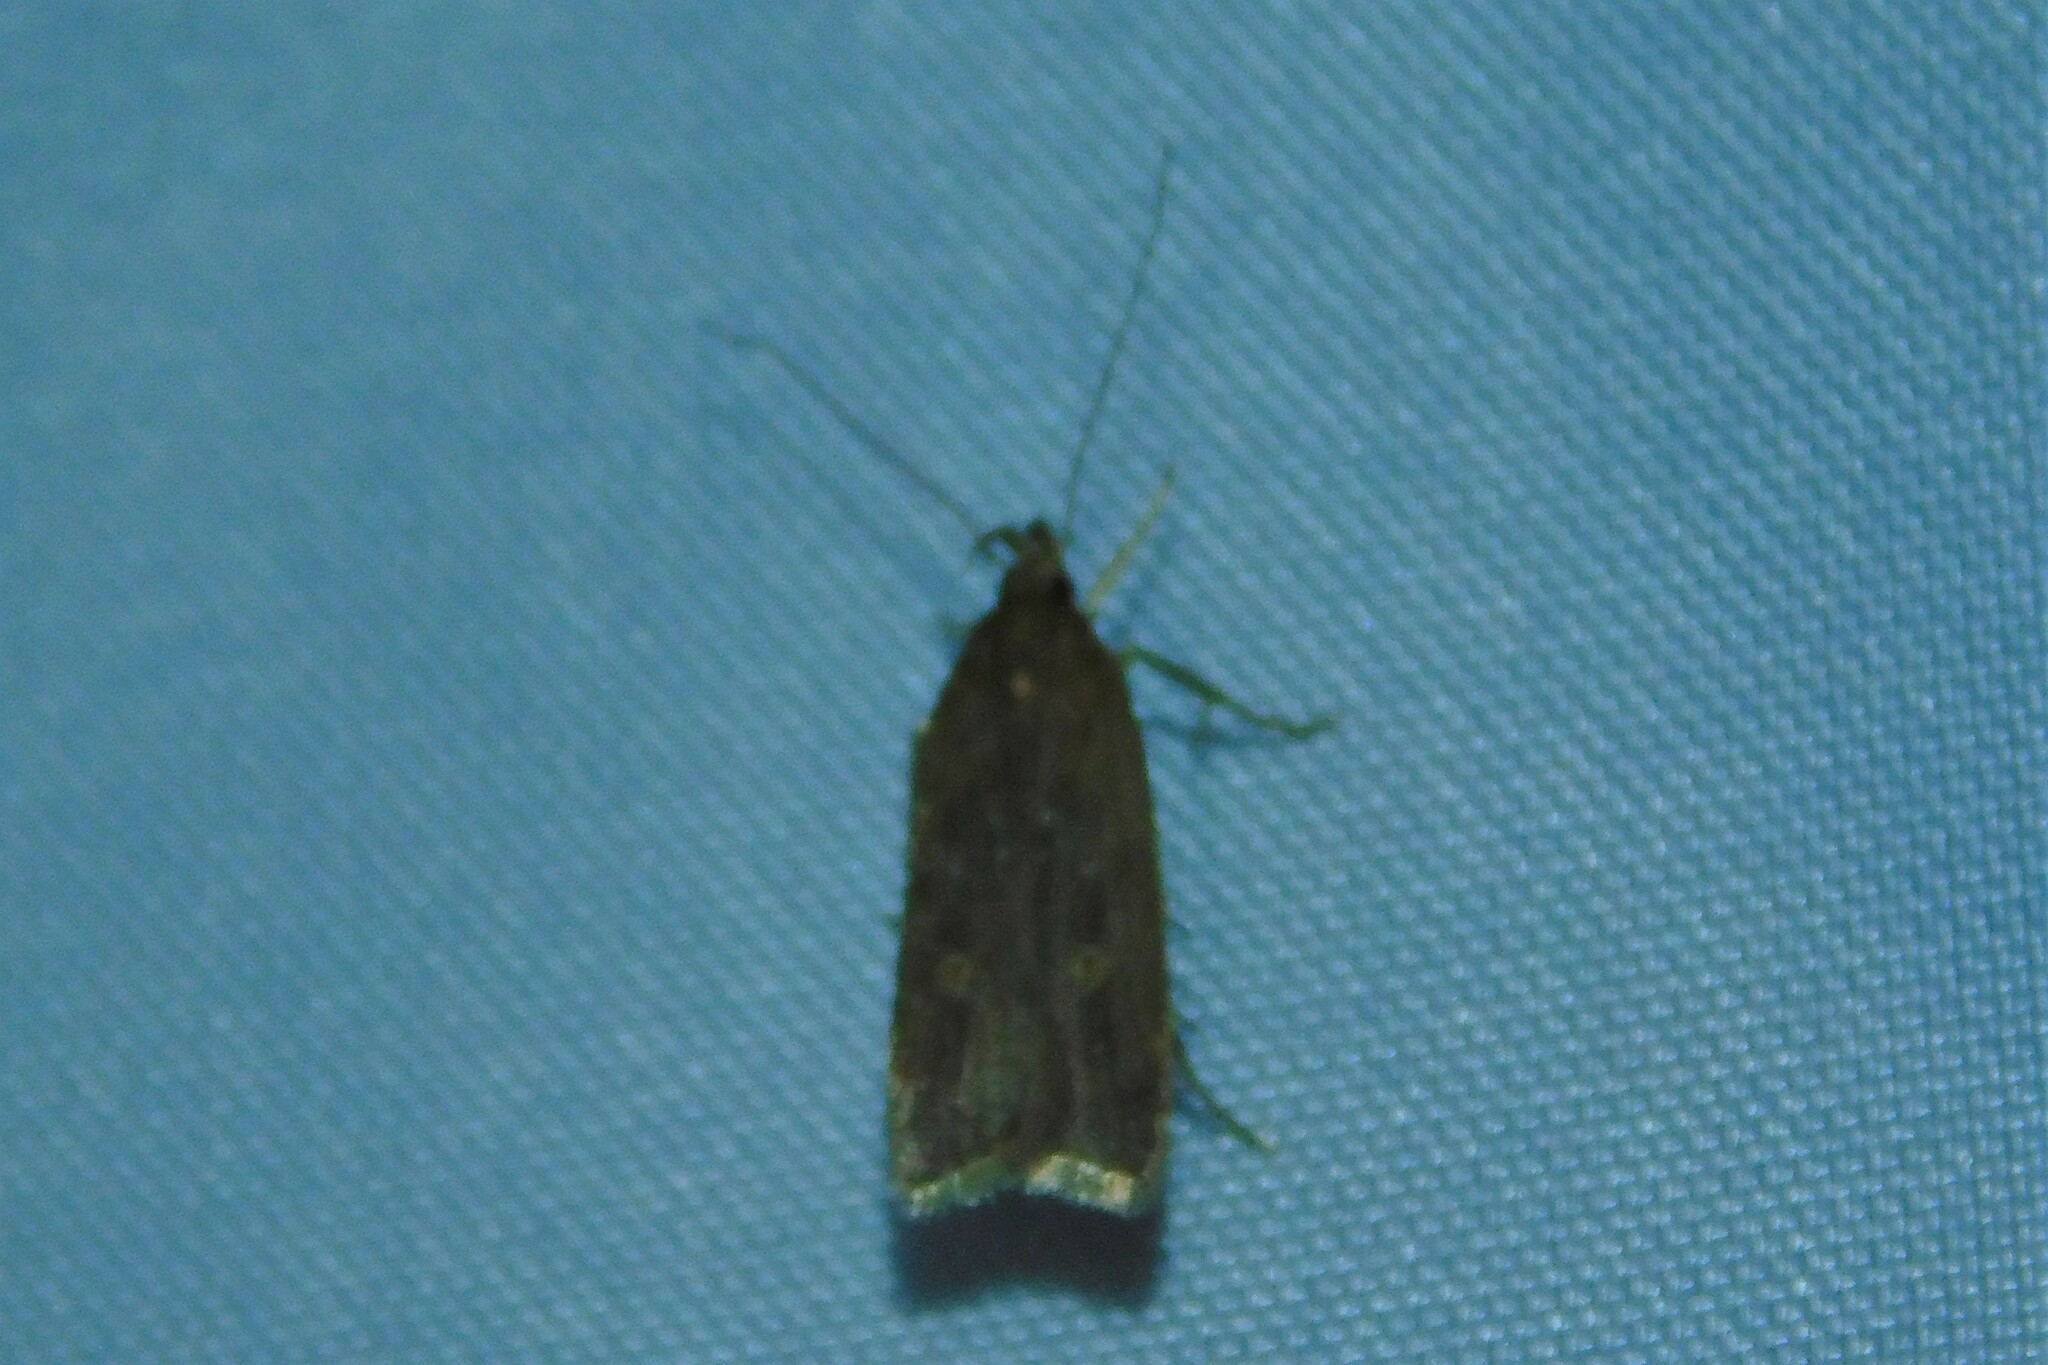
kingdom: Animalia
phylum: Arthropoda
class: Insecta
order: Lepidoptera
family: Gelechiidae
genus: Helcystogramma
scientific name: Helcystogramma triannulella
